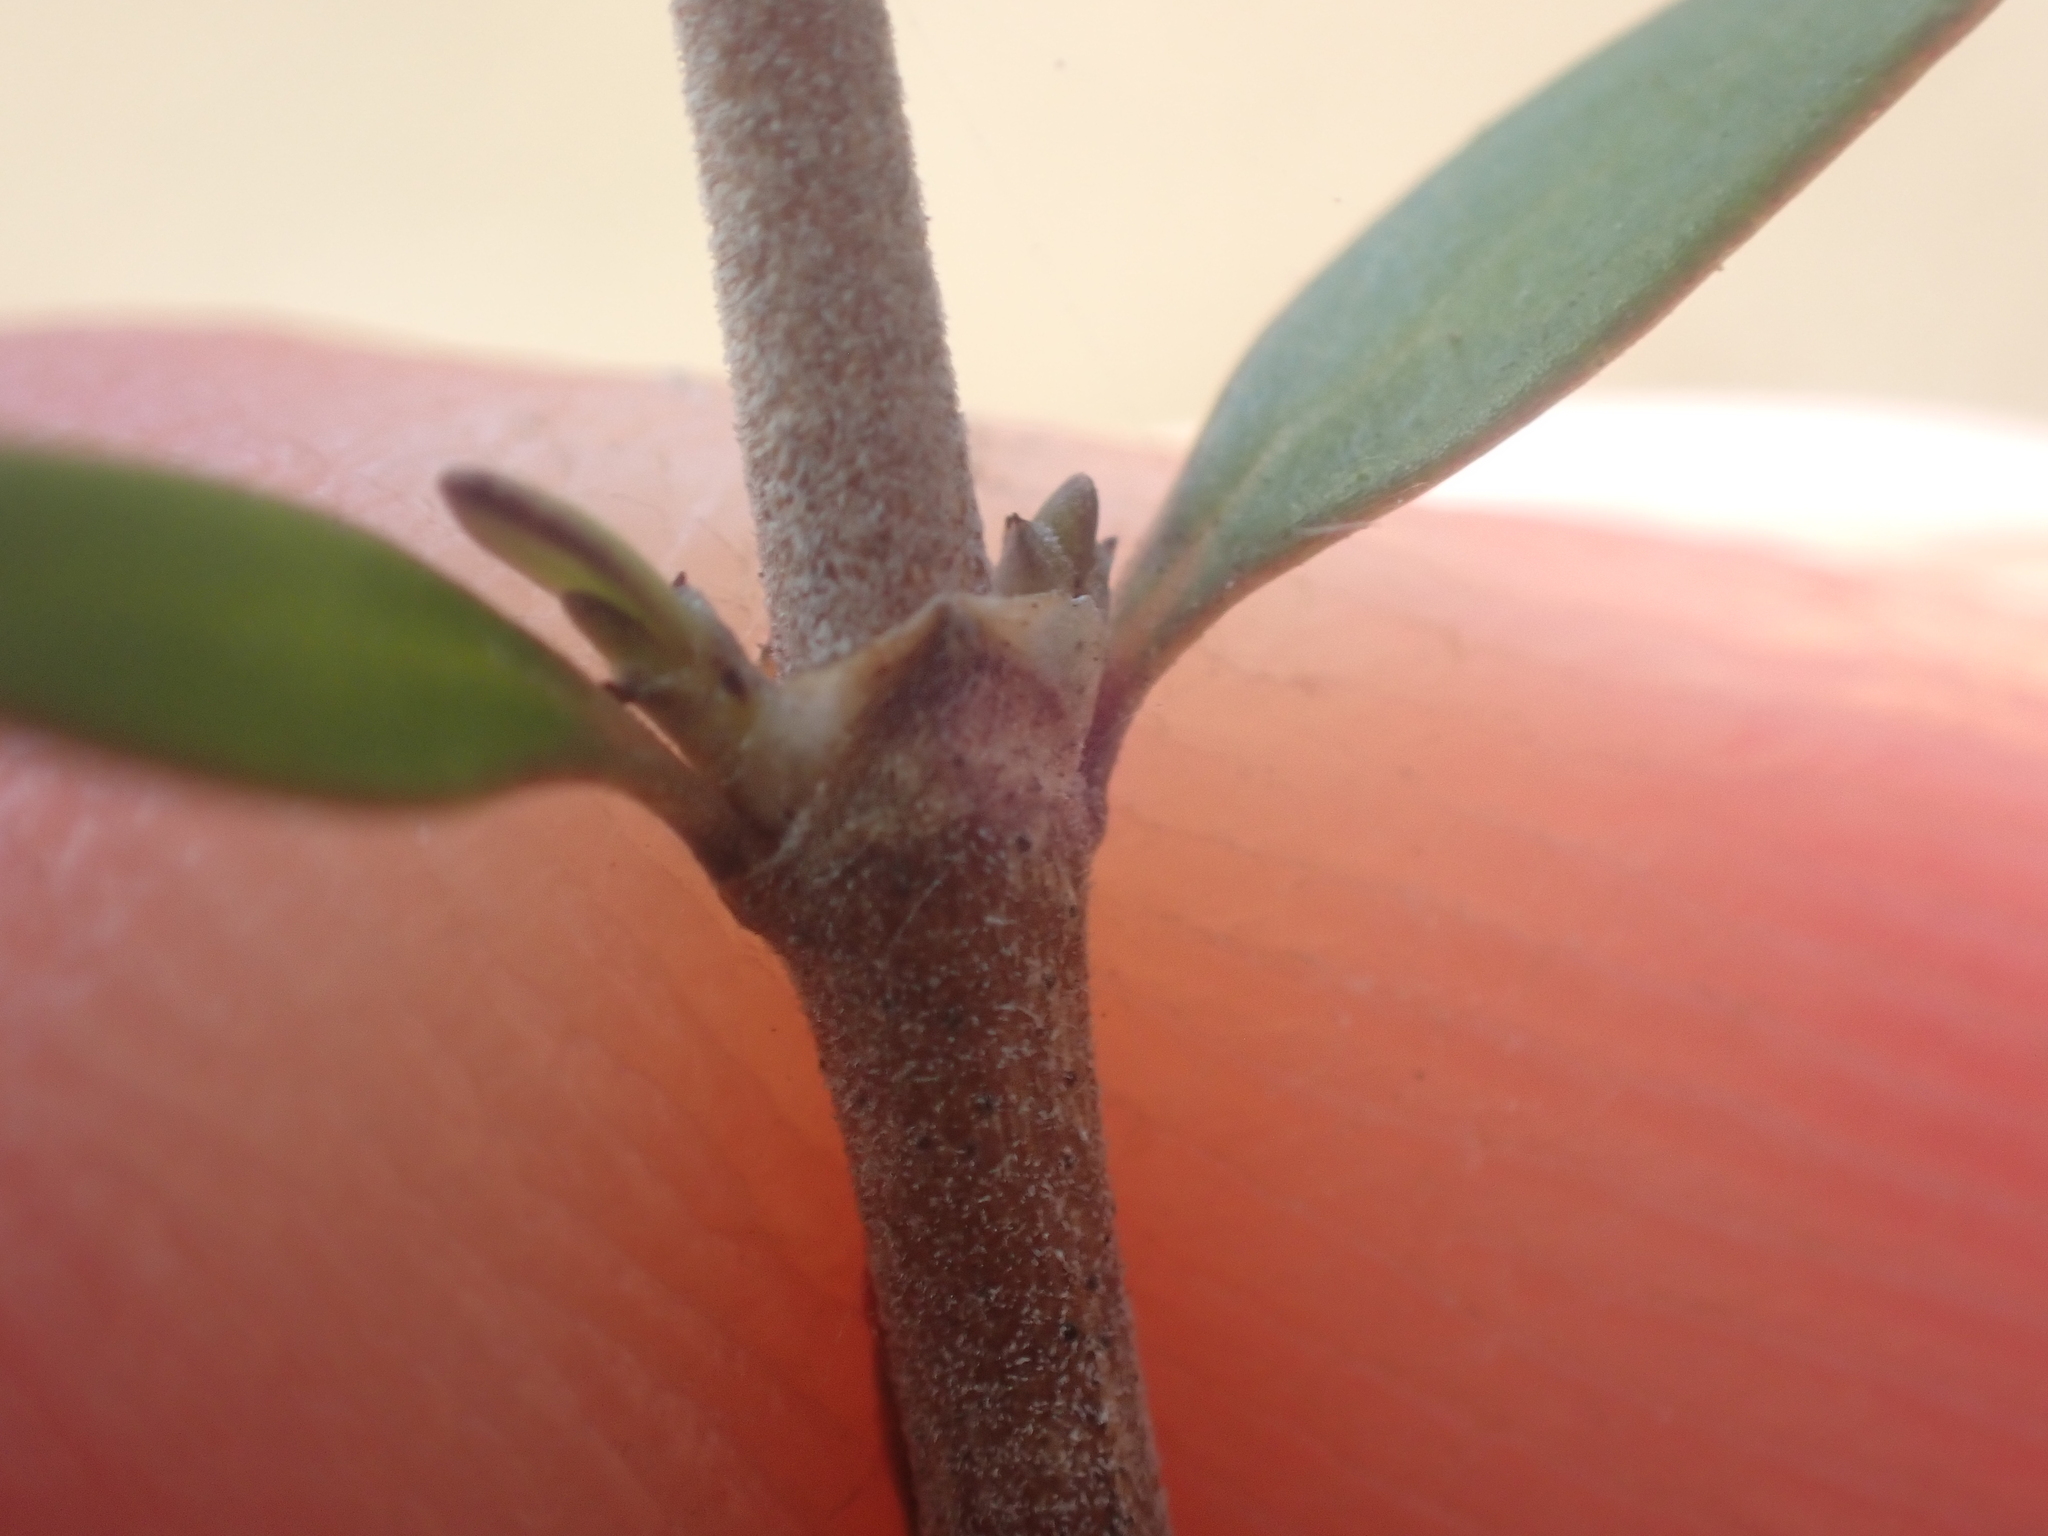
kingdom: Plantae
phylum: Tracheophyta
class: Magnoliopsida
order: Gentianales
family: Rubiaceae
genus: Coprosma
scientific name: Coprosma propinqua
